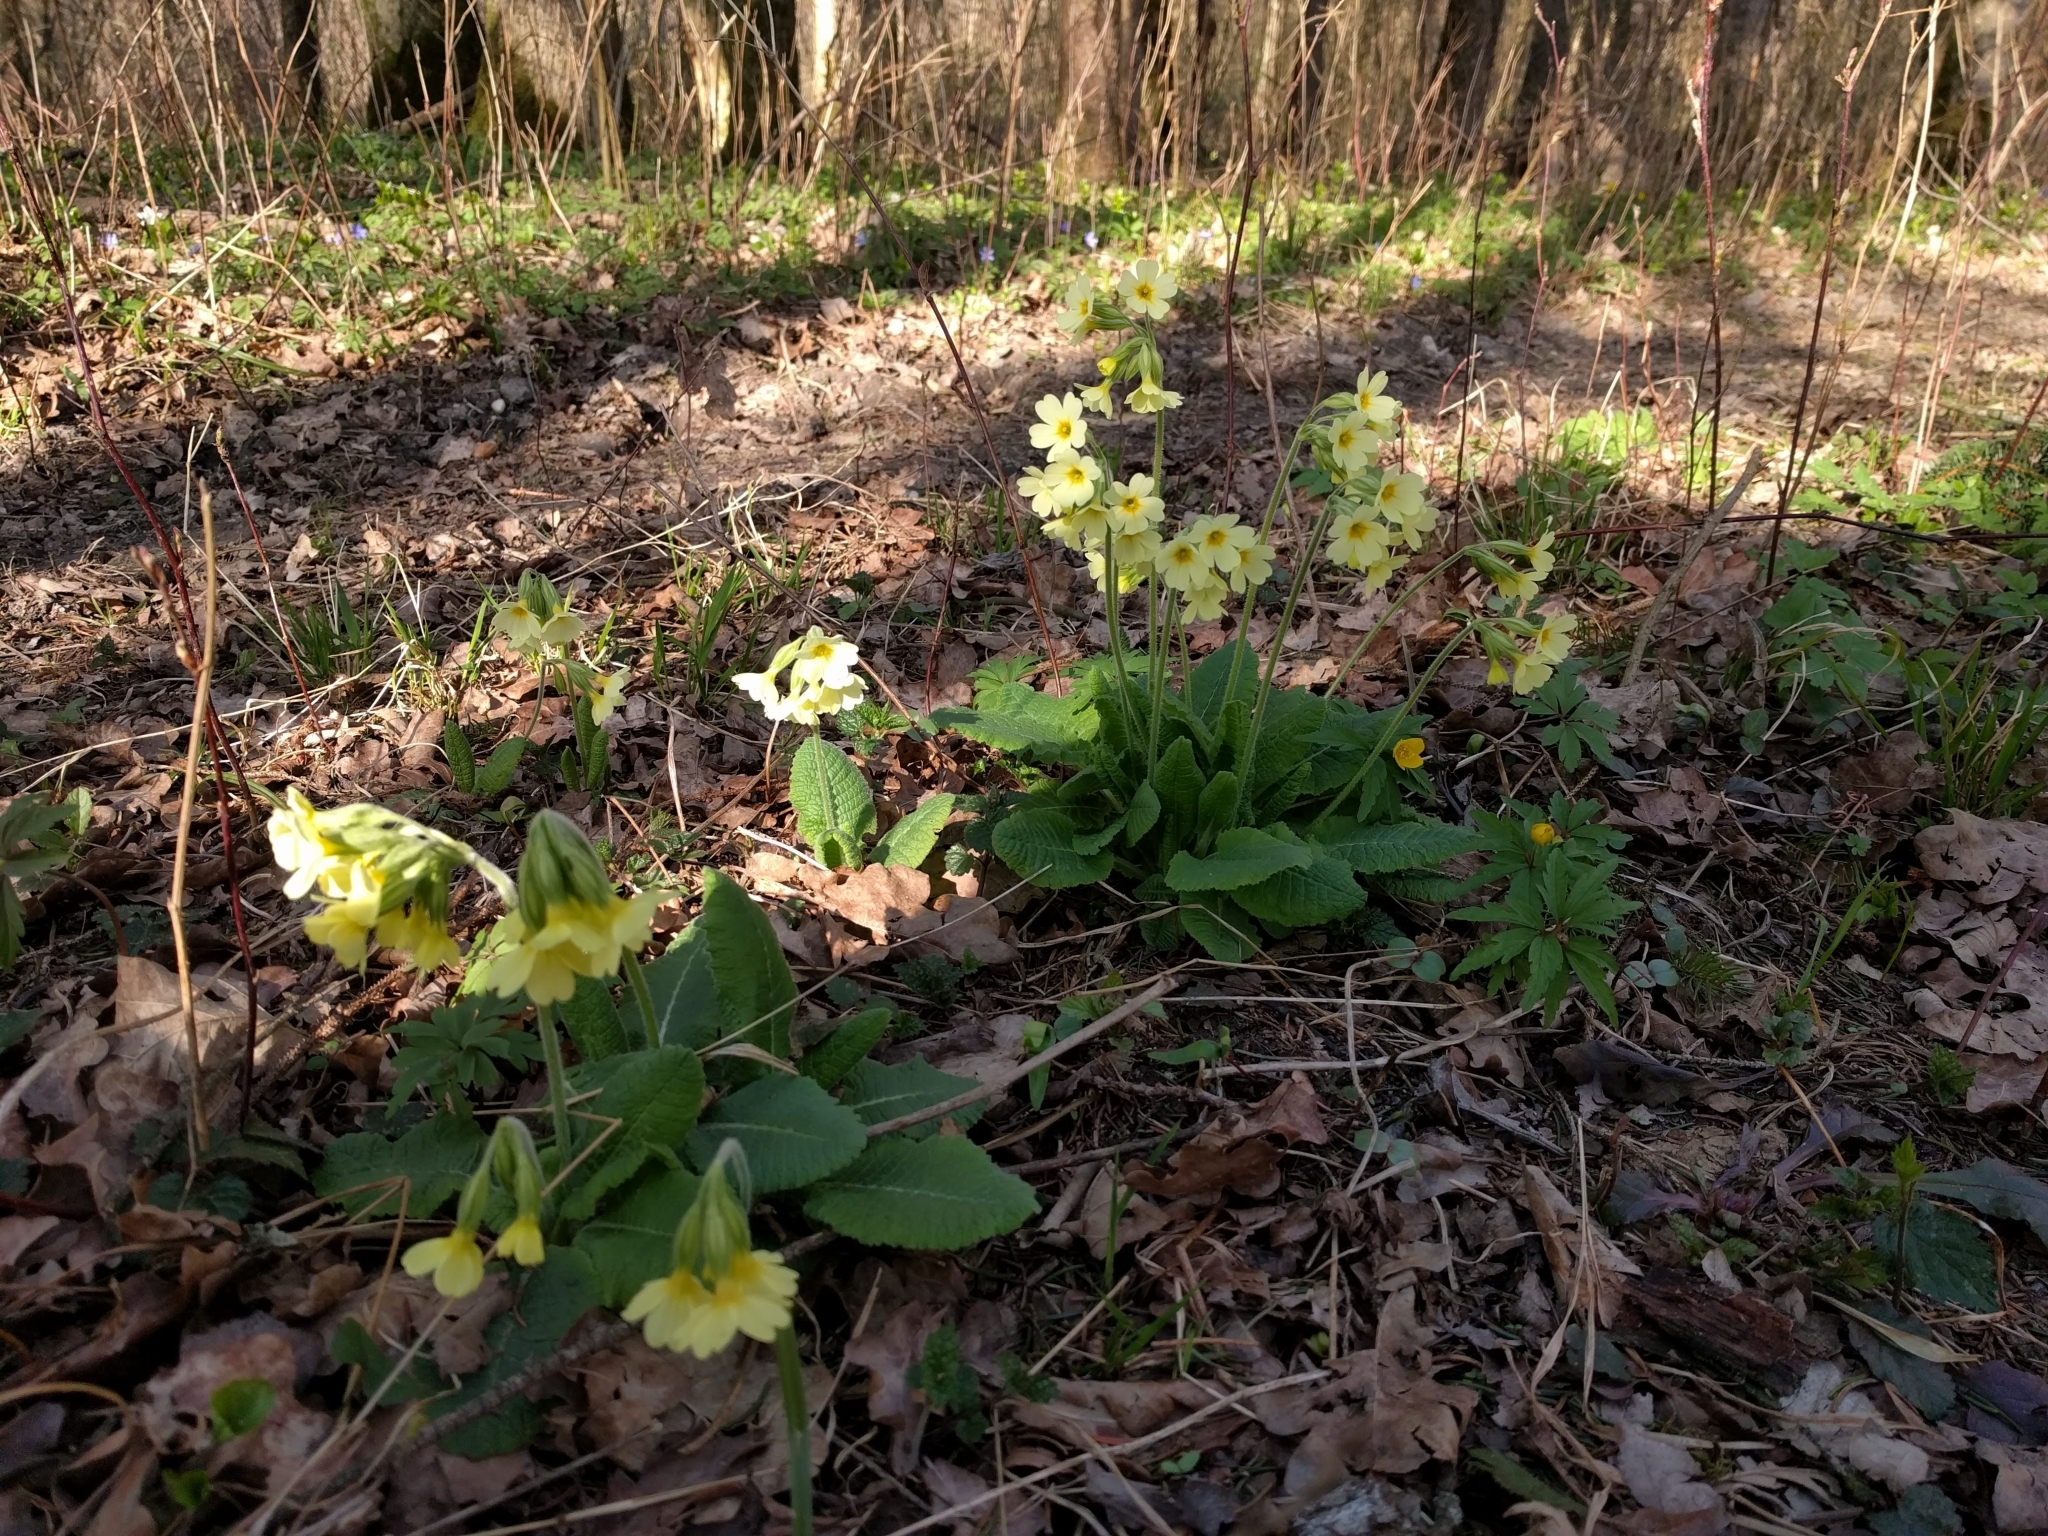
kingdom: Plantae
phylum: Tracheophyta
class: Magnoliopsida
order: Ericales
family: Primulaceae
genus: Primula
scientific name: Primula elatior
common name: Oxlip
